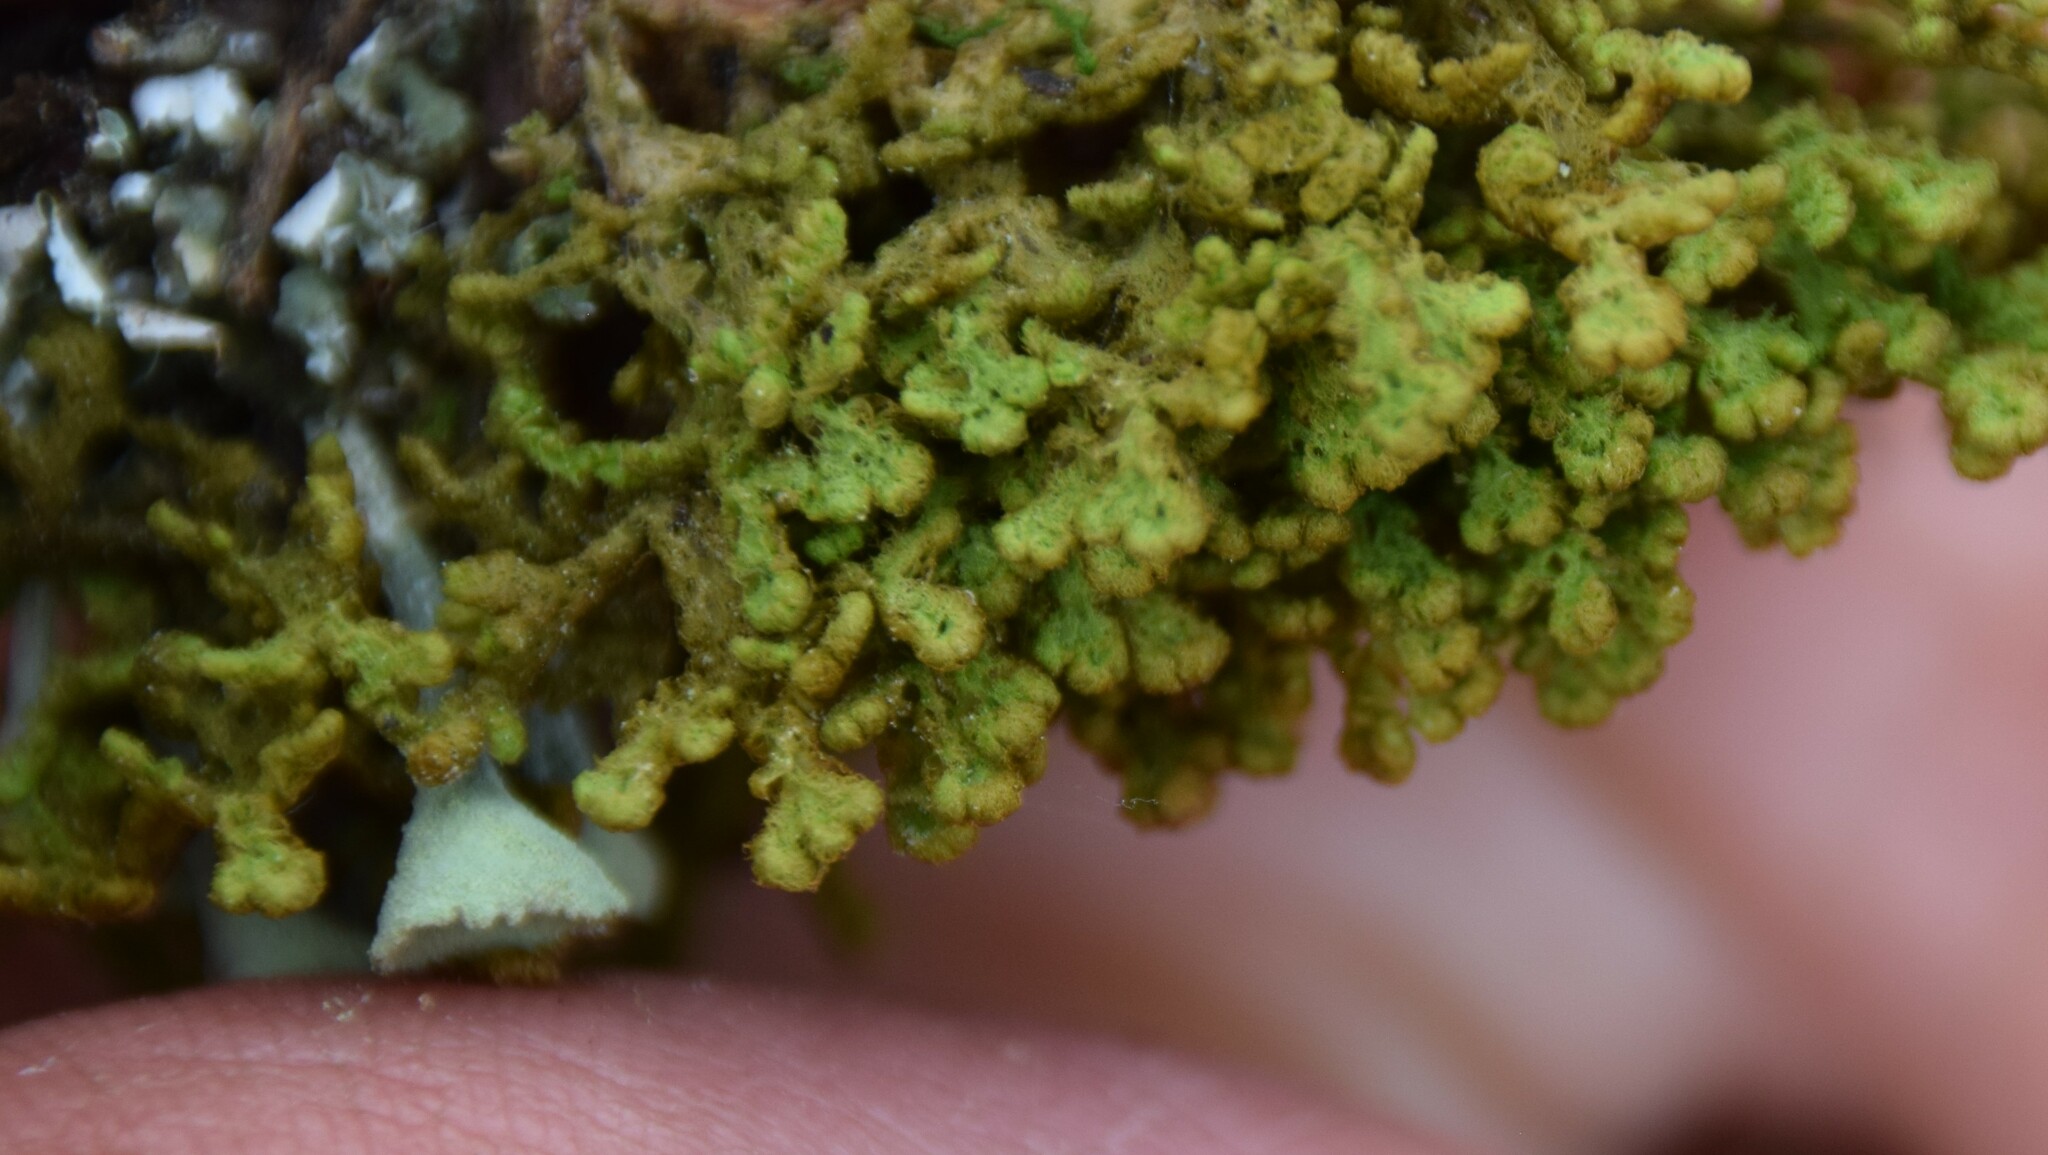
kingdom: Plantae
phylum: Marchantiophyta
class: Jungermanniopsida
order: Ptilidiales
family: Ptilidiaceae
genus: Ptilidium
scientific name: Ptilidium ciliare
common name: Ciliate fringewort
